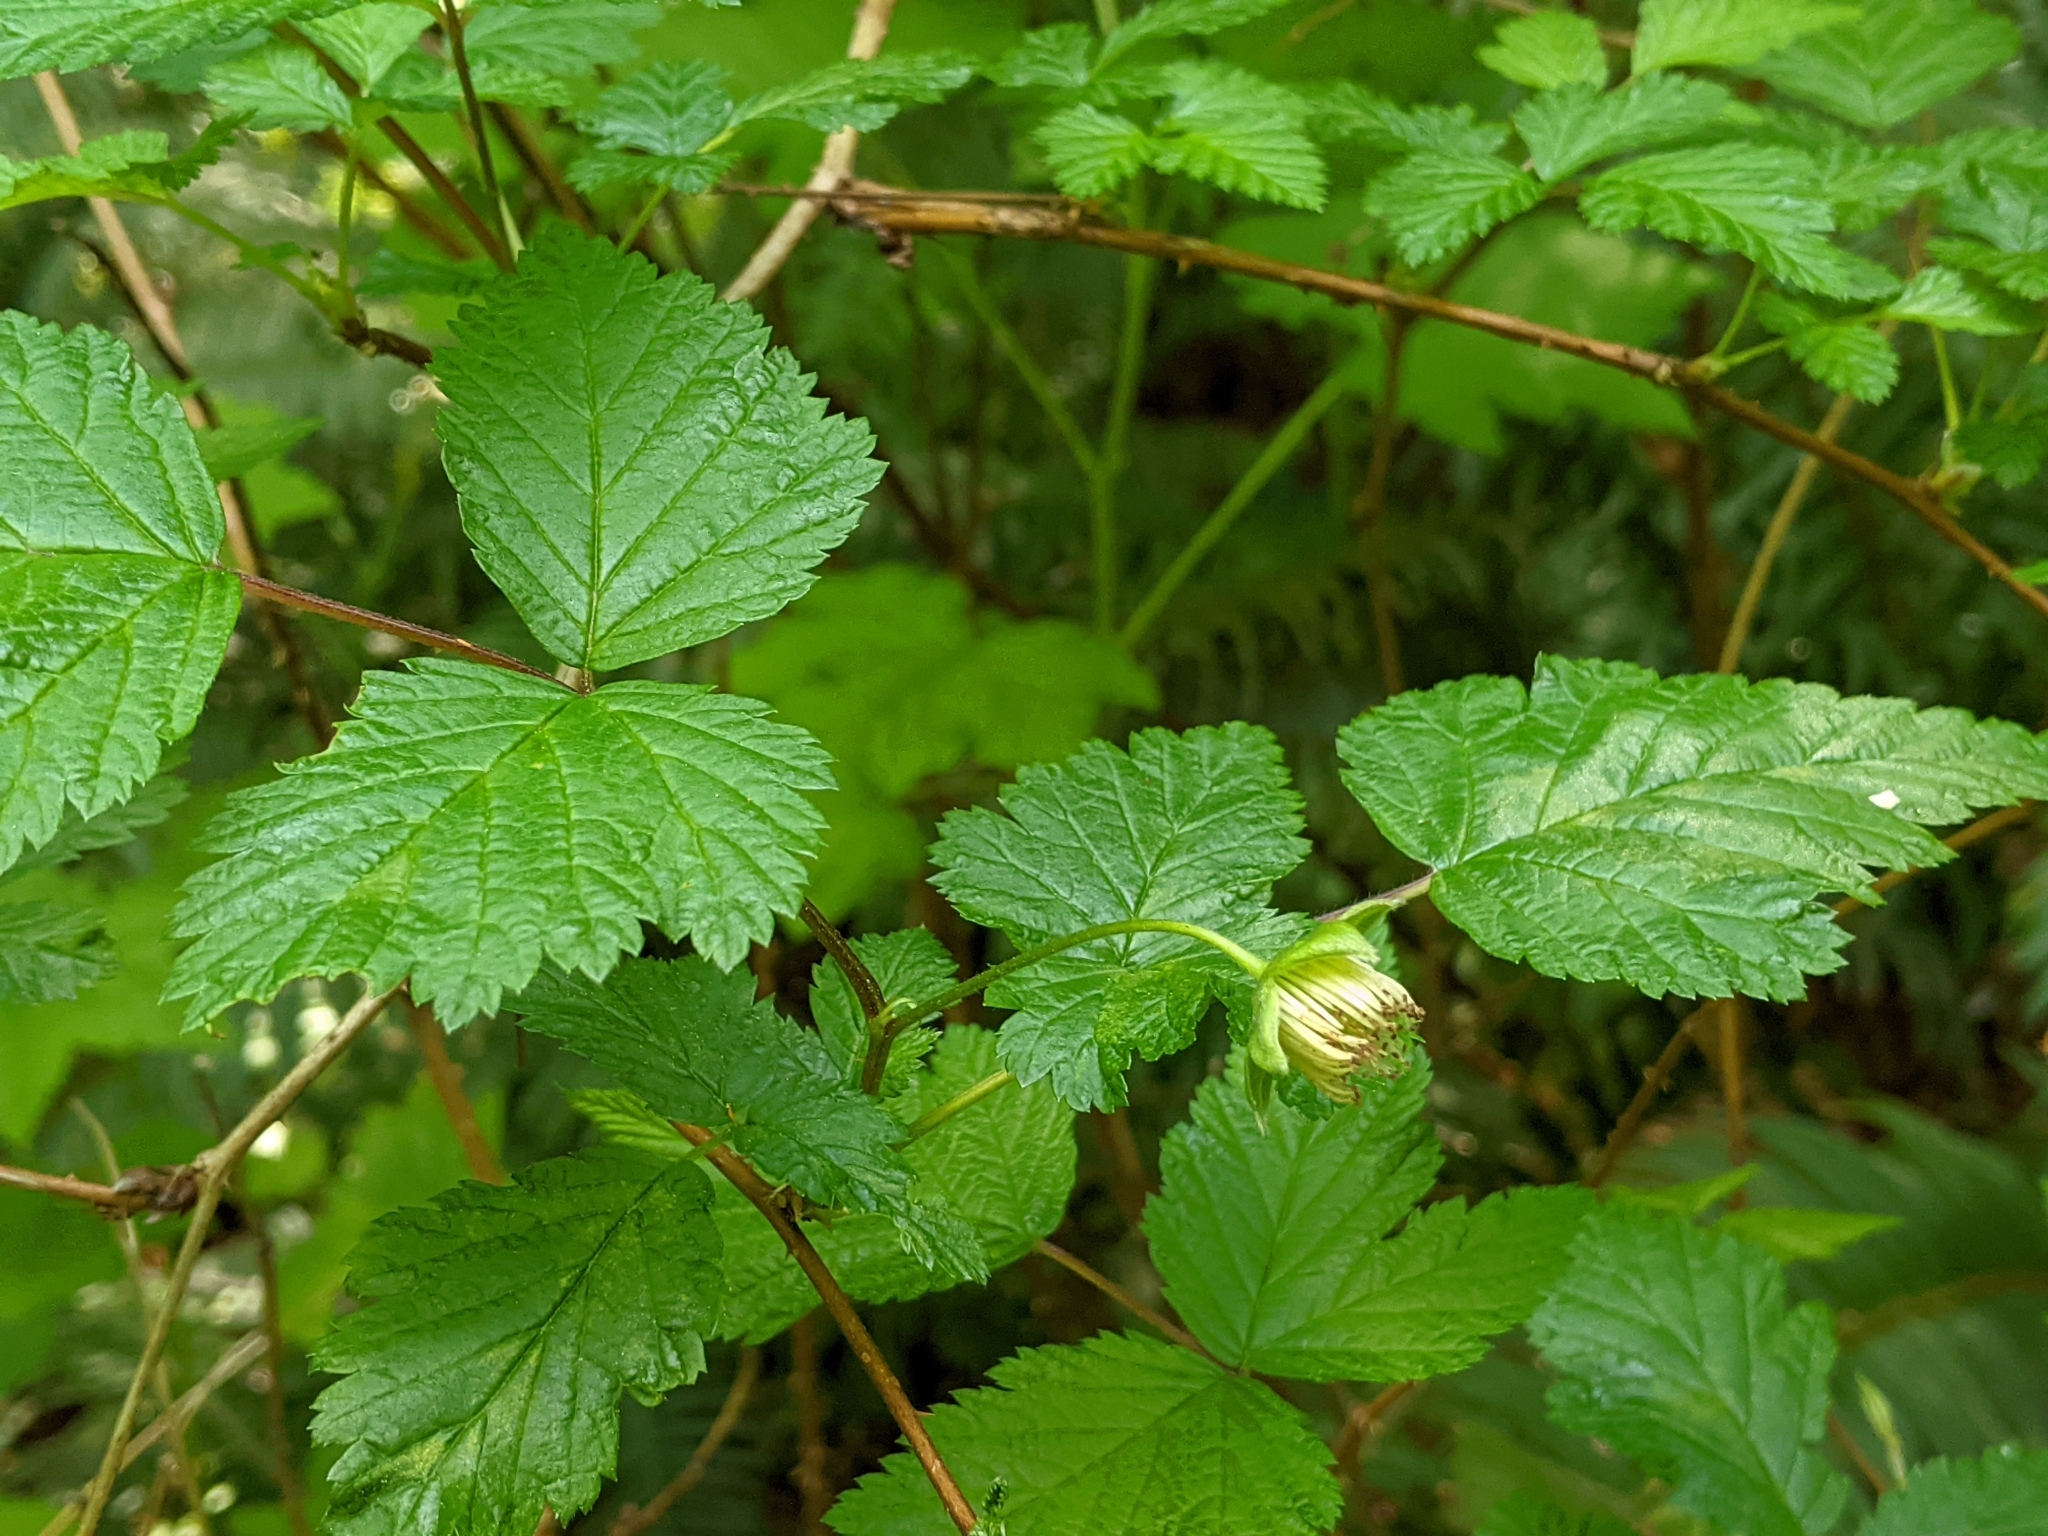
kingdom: Plantae
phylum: Tracheophyta
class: Magnoliopsida
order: Rosales
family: Rosaceae
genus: Rubus
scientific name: Rubus spectabilis
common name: Salmonberry
